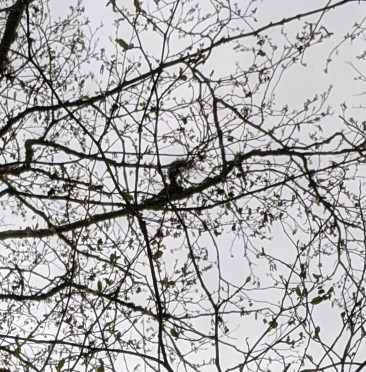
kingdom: Animalia
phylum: Chordata
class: Mammalia
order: Rodentia
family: Sciuridae
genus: Sciurus
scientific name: Sciurus carolinensis
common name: Eastern gray squirrel
